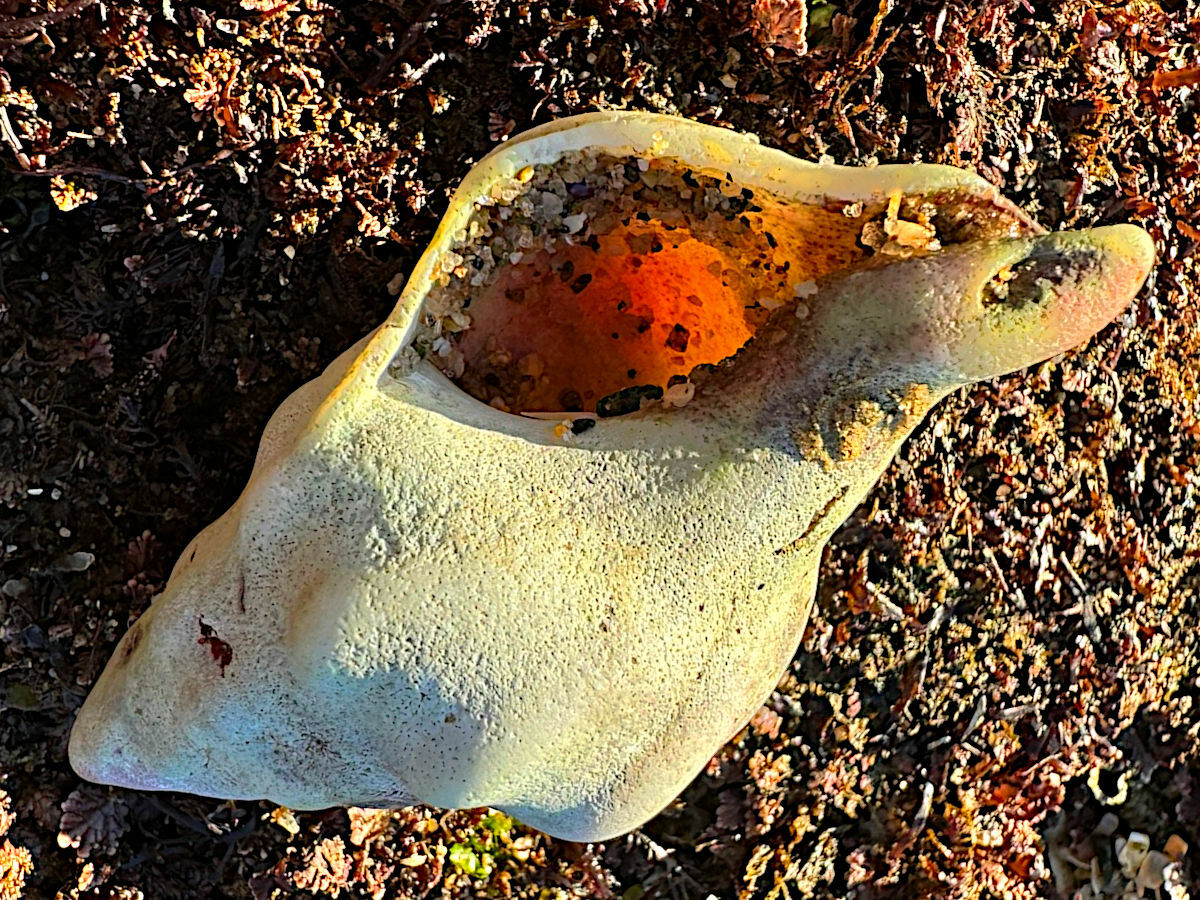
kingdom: Animalia
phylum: Mollusca
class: Gastropoda
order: Neogastropoda
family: Austrosiphonidae
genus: Kelletia
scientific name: Kelletia kelletii
